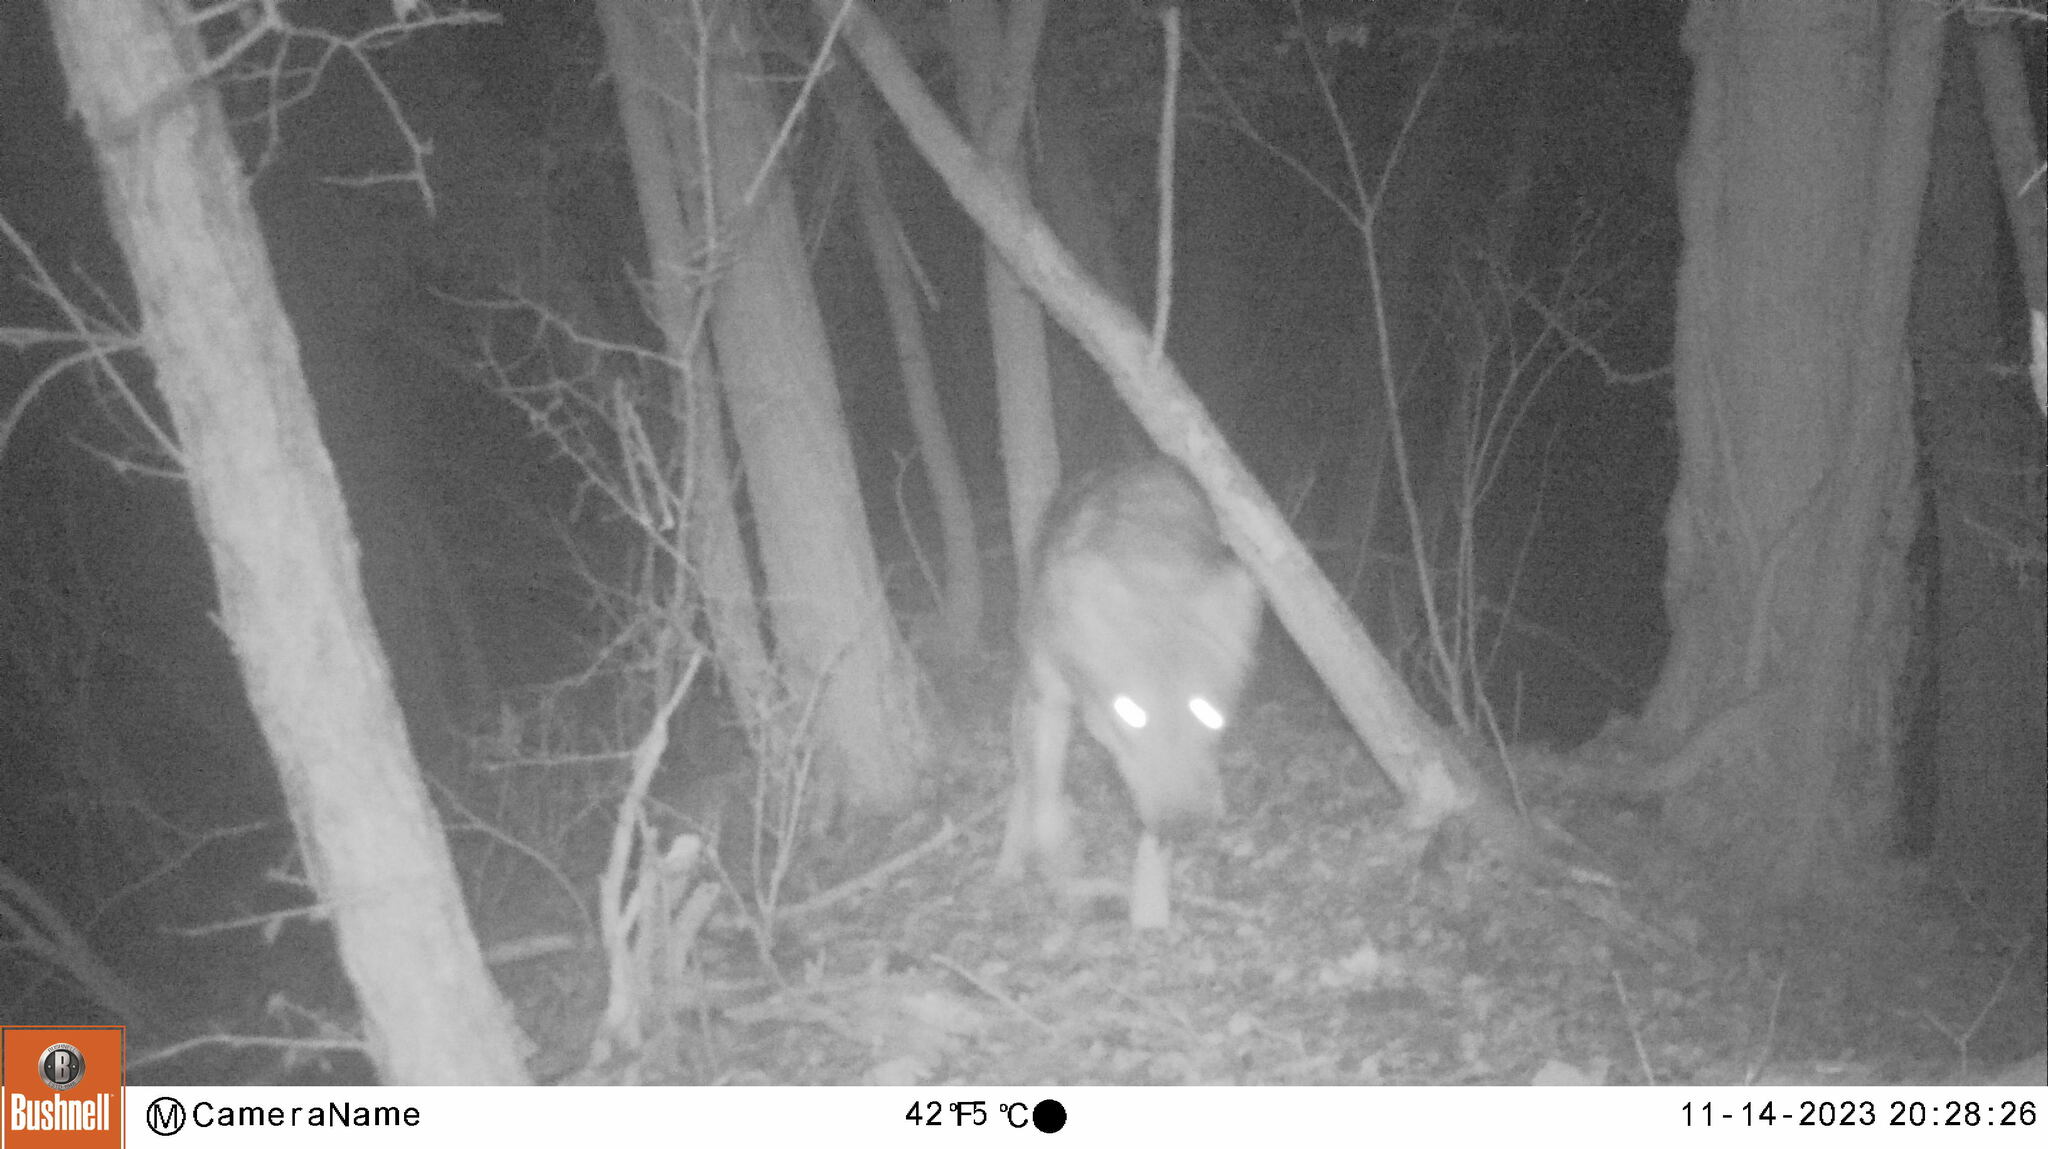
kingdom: Animalia
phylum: Chordata
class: Mammalia
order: Carnivora
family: Canidae
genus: Canis
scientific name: Canis lupus
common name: Gray wolf
